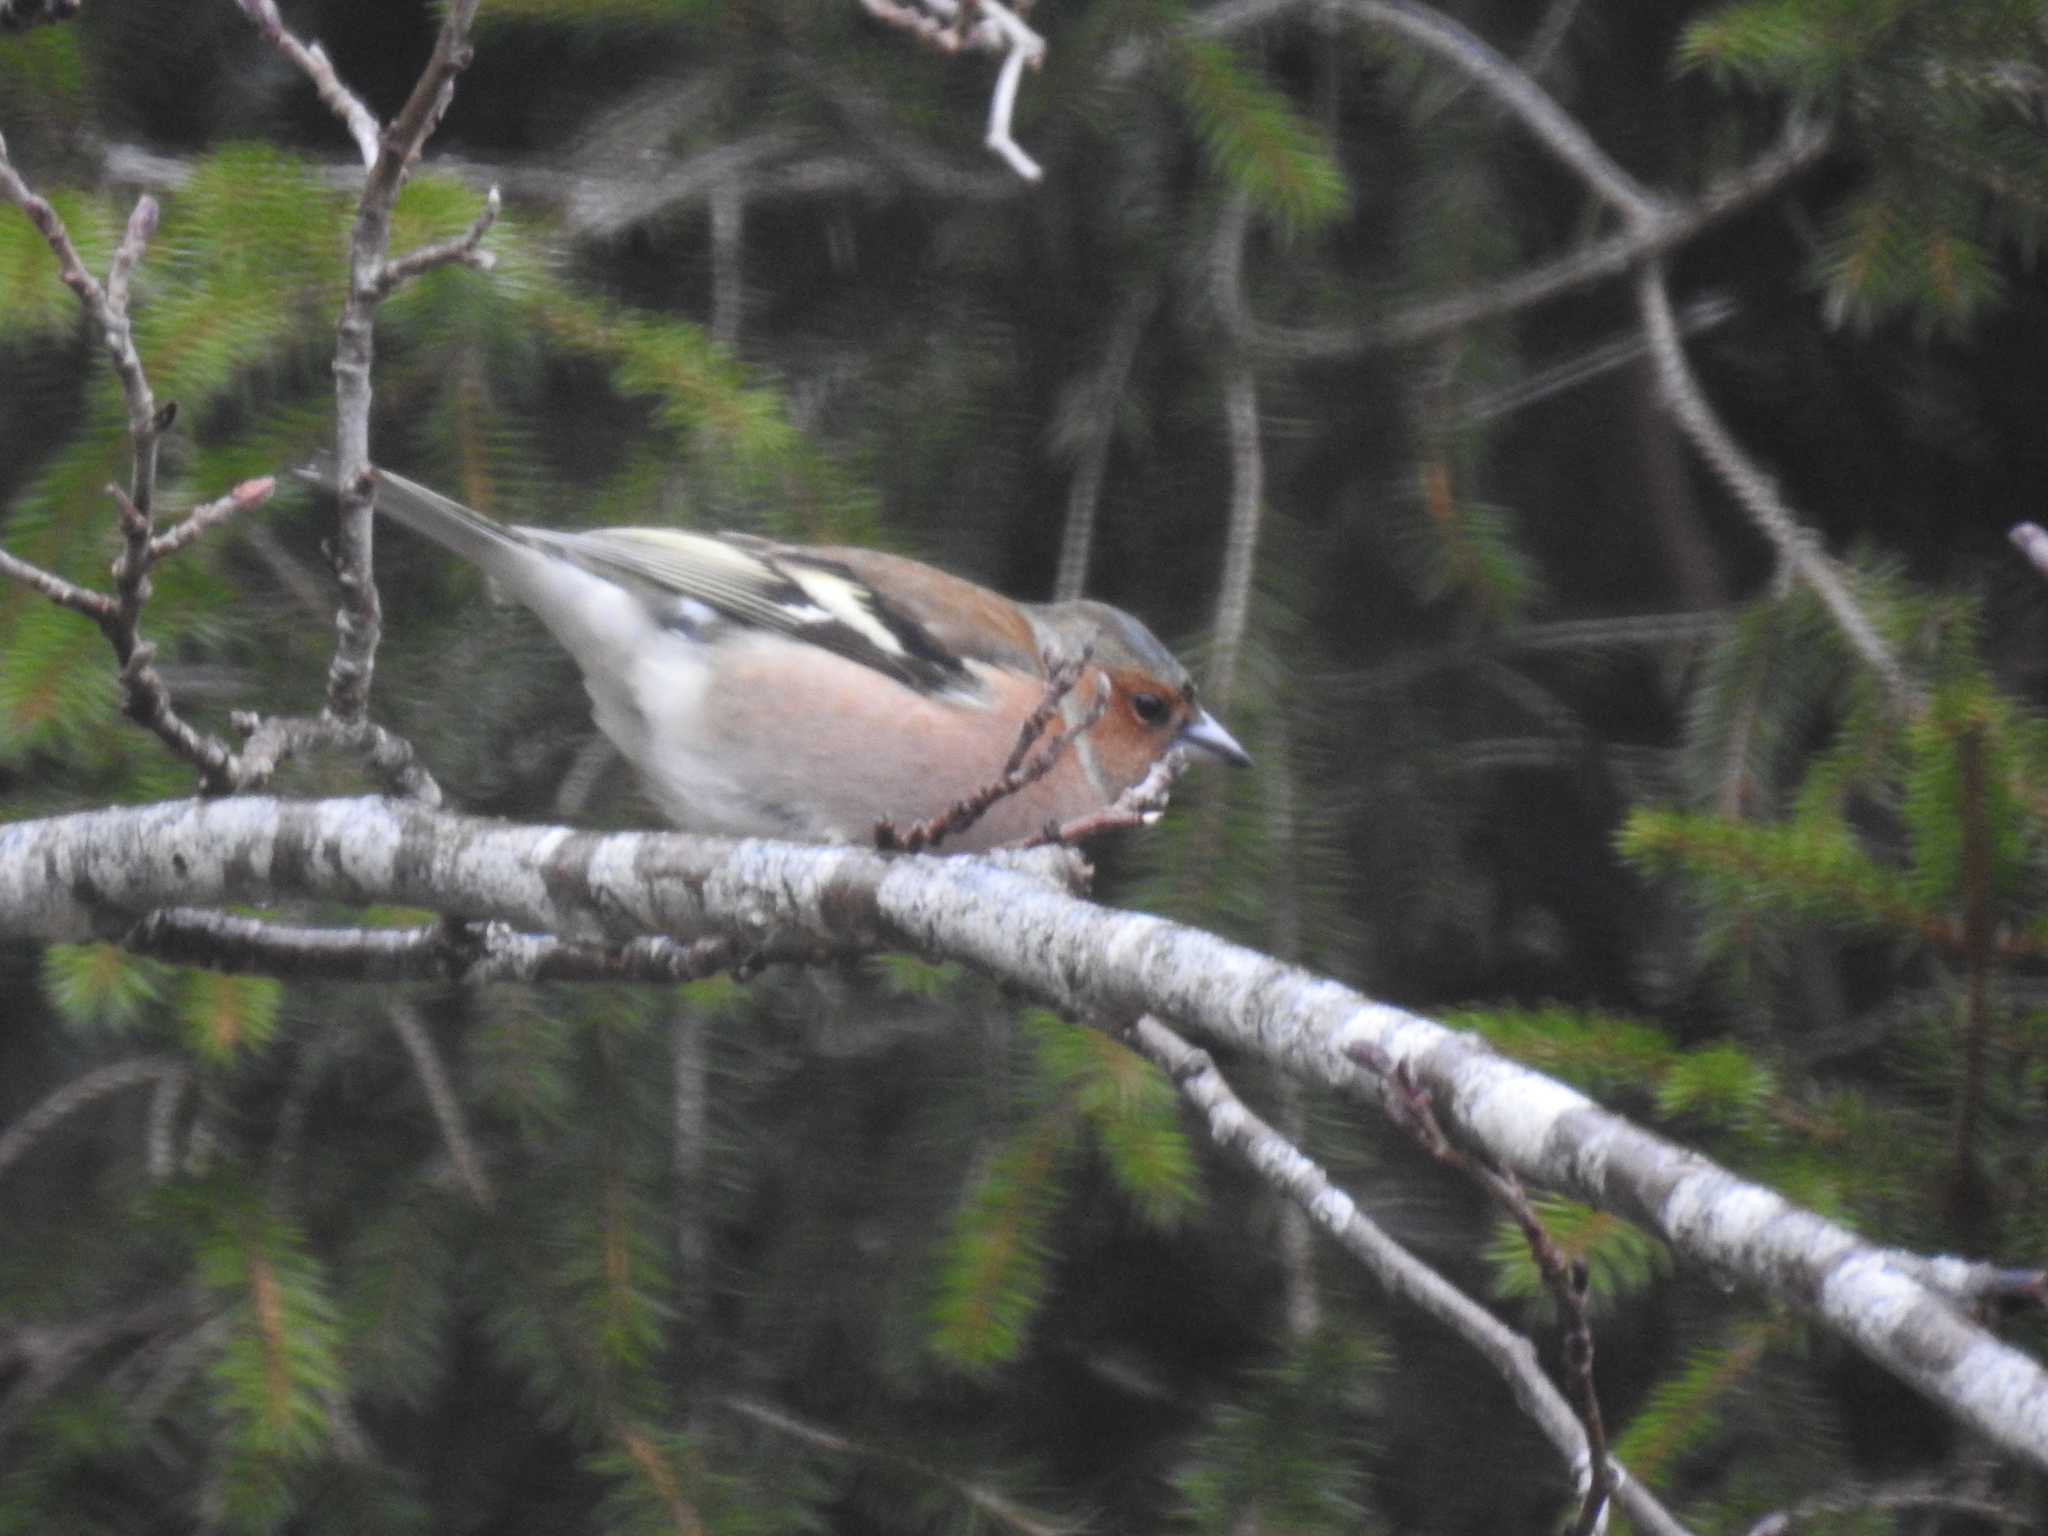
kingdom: Animalia
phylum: Chordata
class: Aves
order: Passeriformes
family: Fringillidae
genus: Fringilla
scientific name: Fringilla coelebs
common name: Common chaffinch
